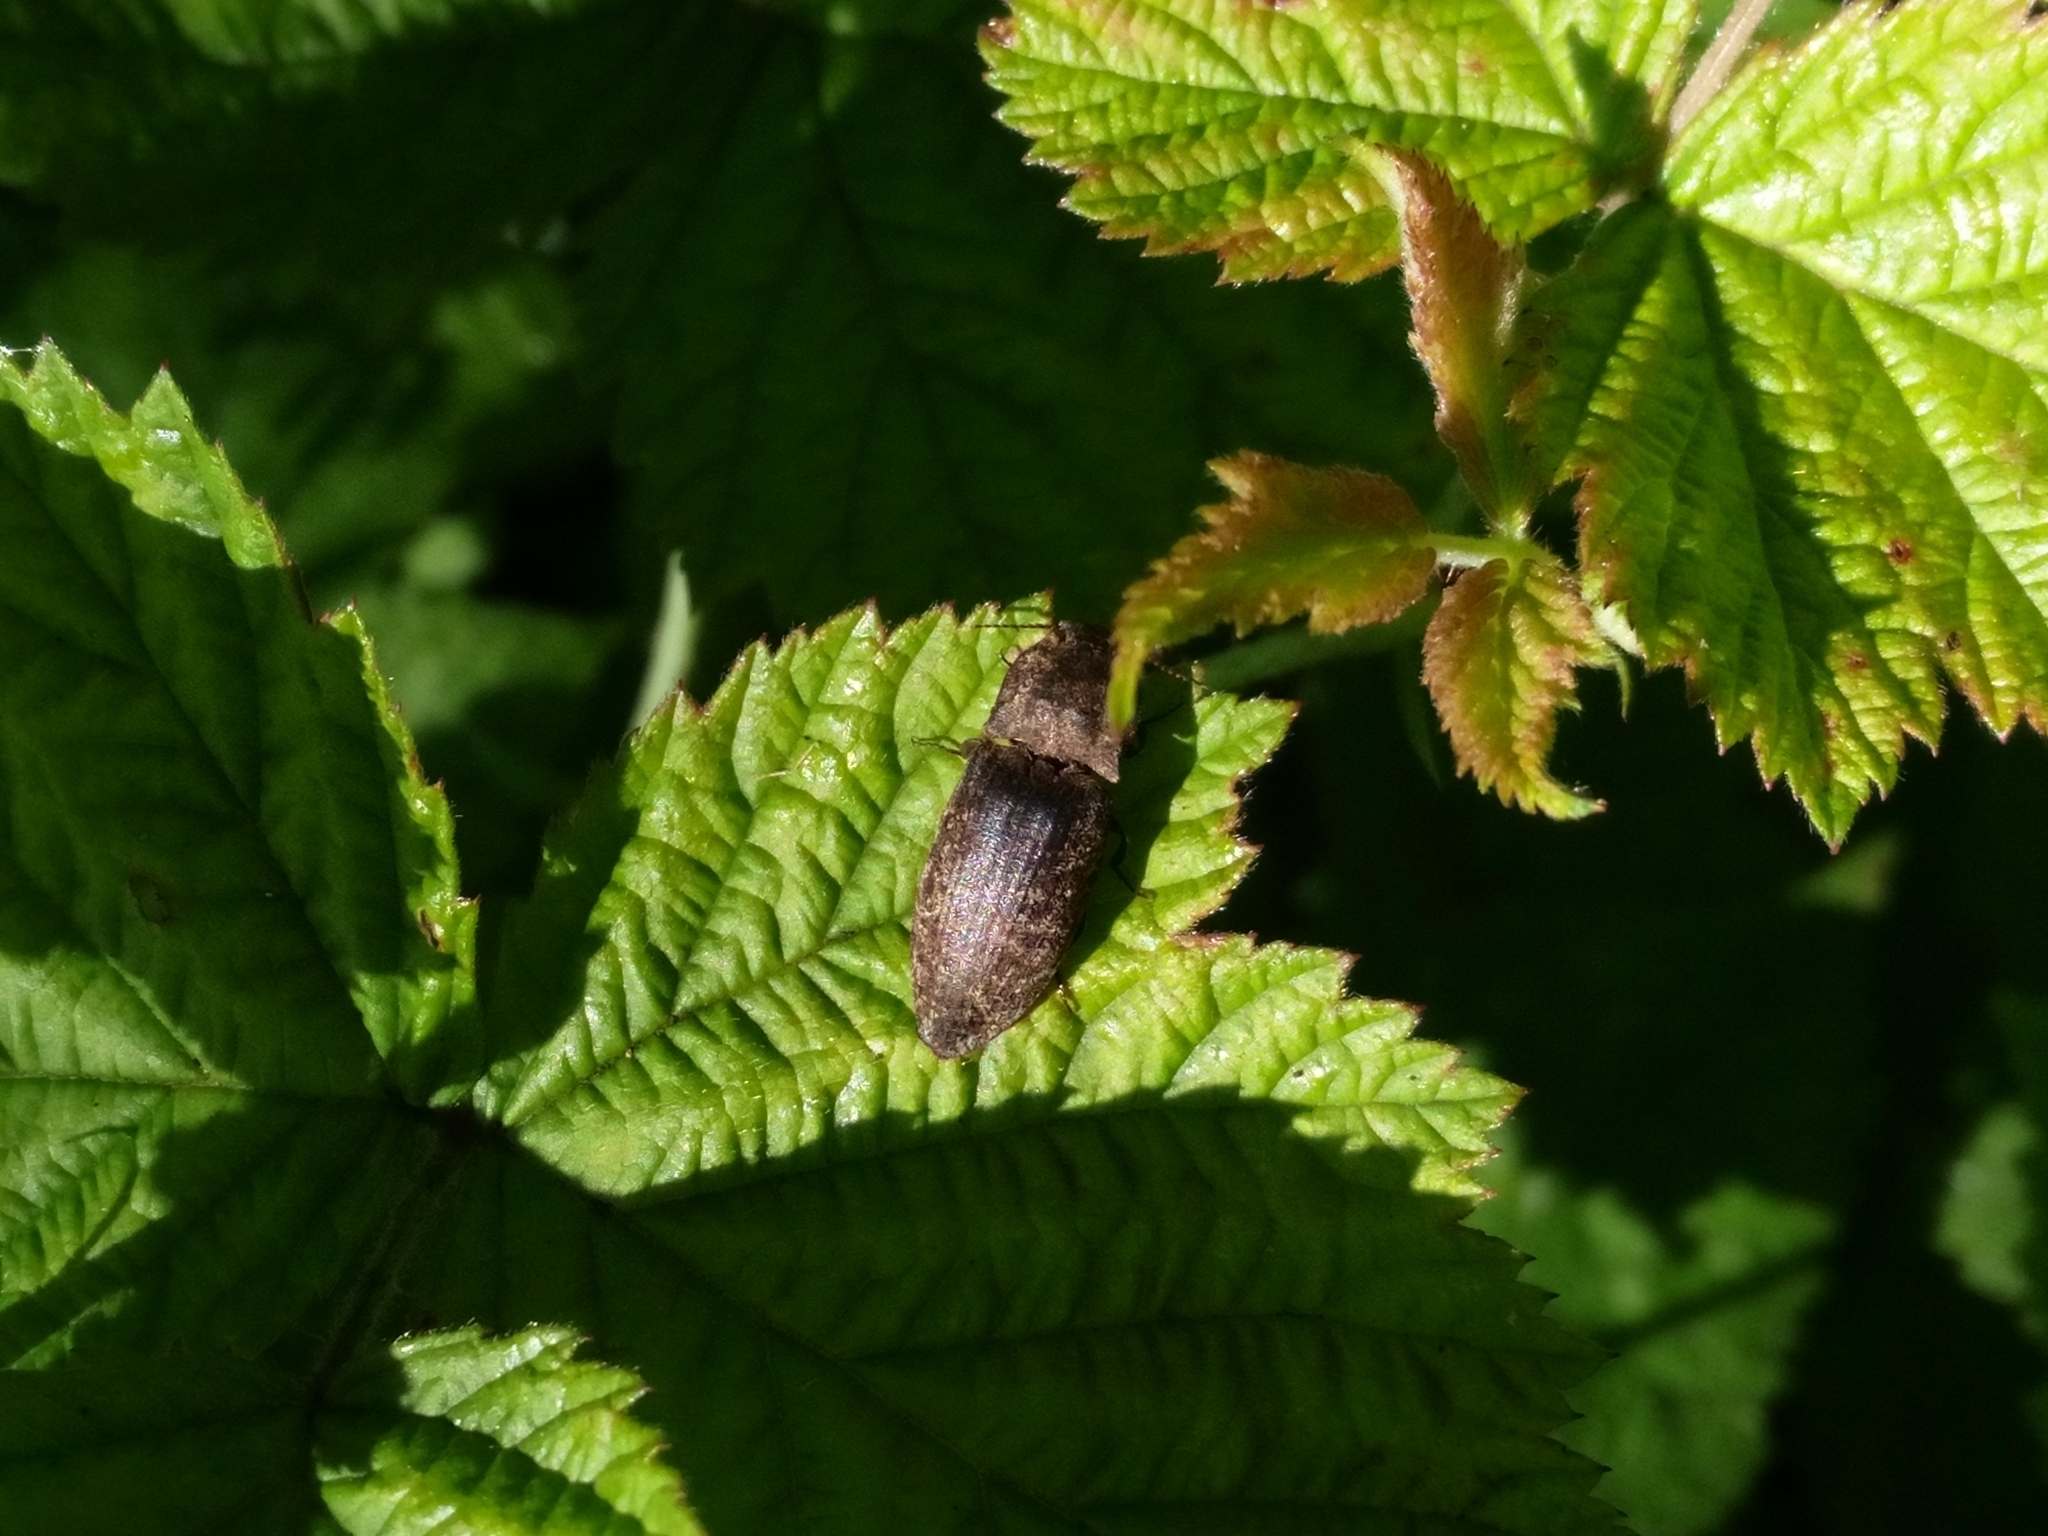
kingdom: Animalia
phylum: Arthropoda
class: Insecta
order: Coleoptera
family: Elateridae
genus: Agrypnus
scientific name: Agrypnus murinus
